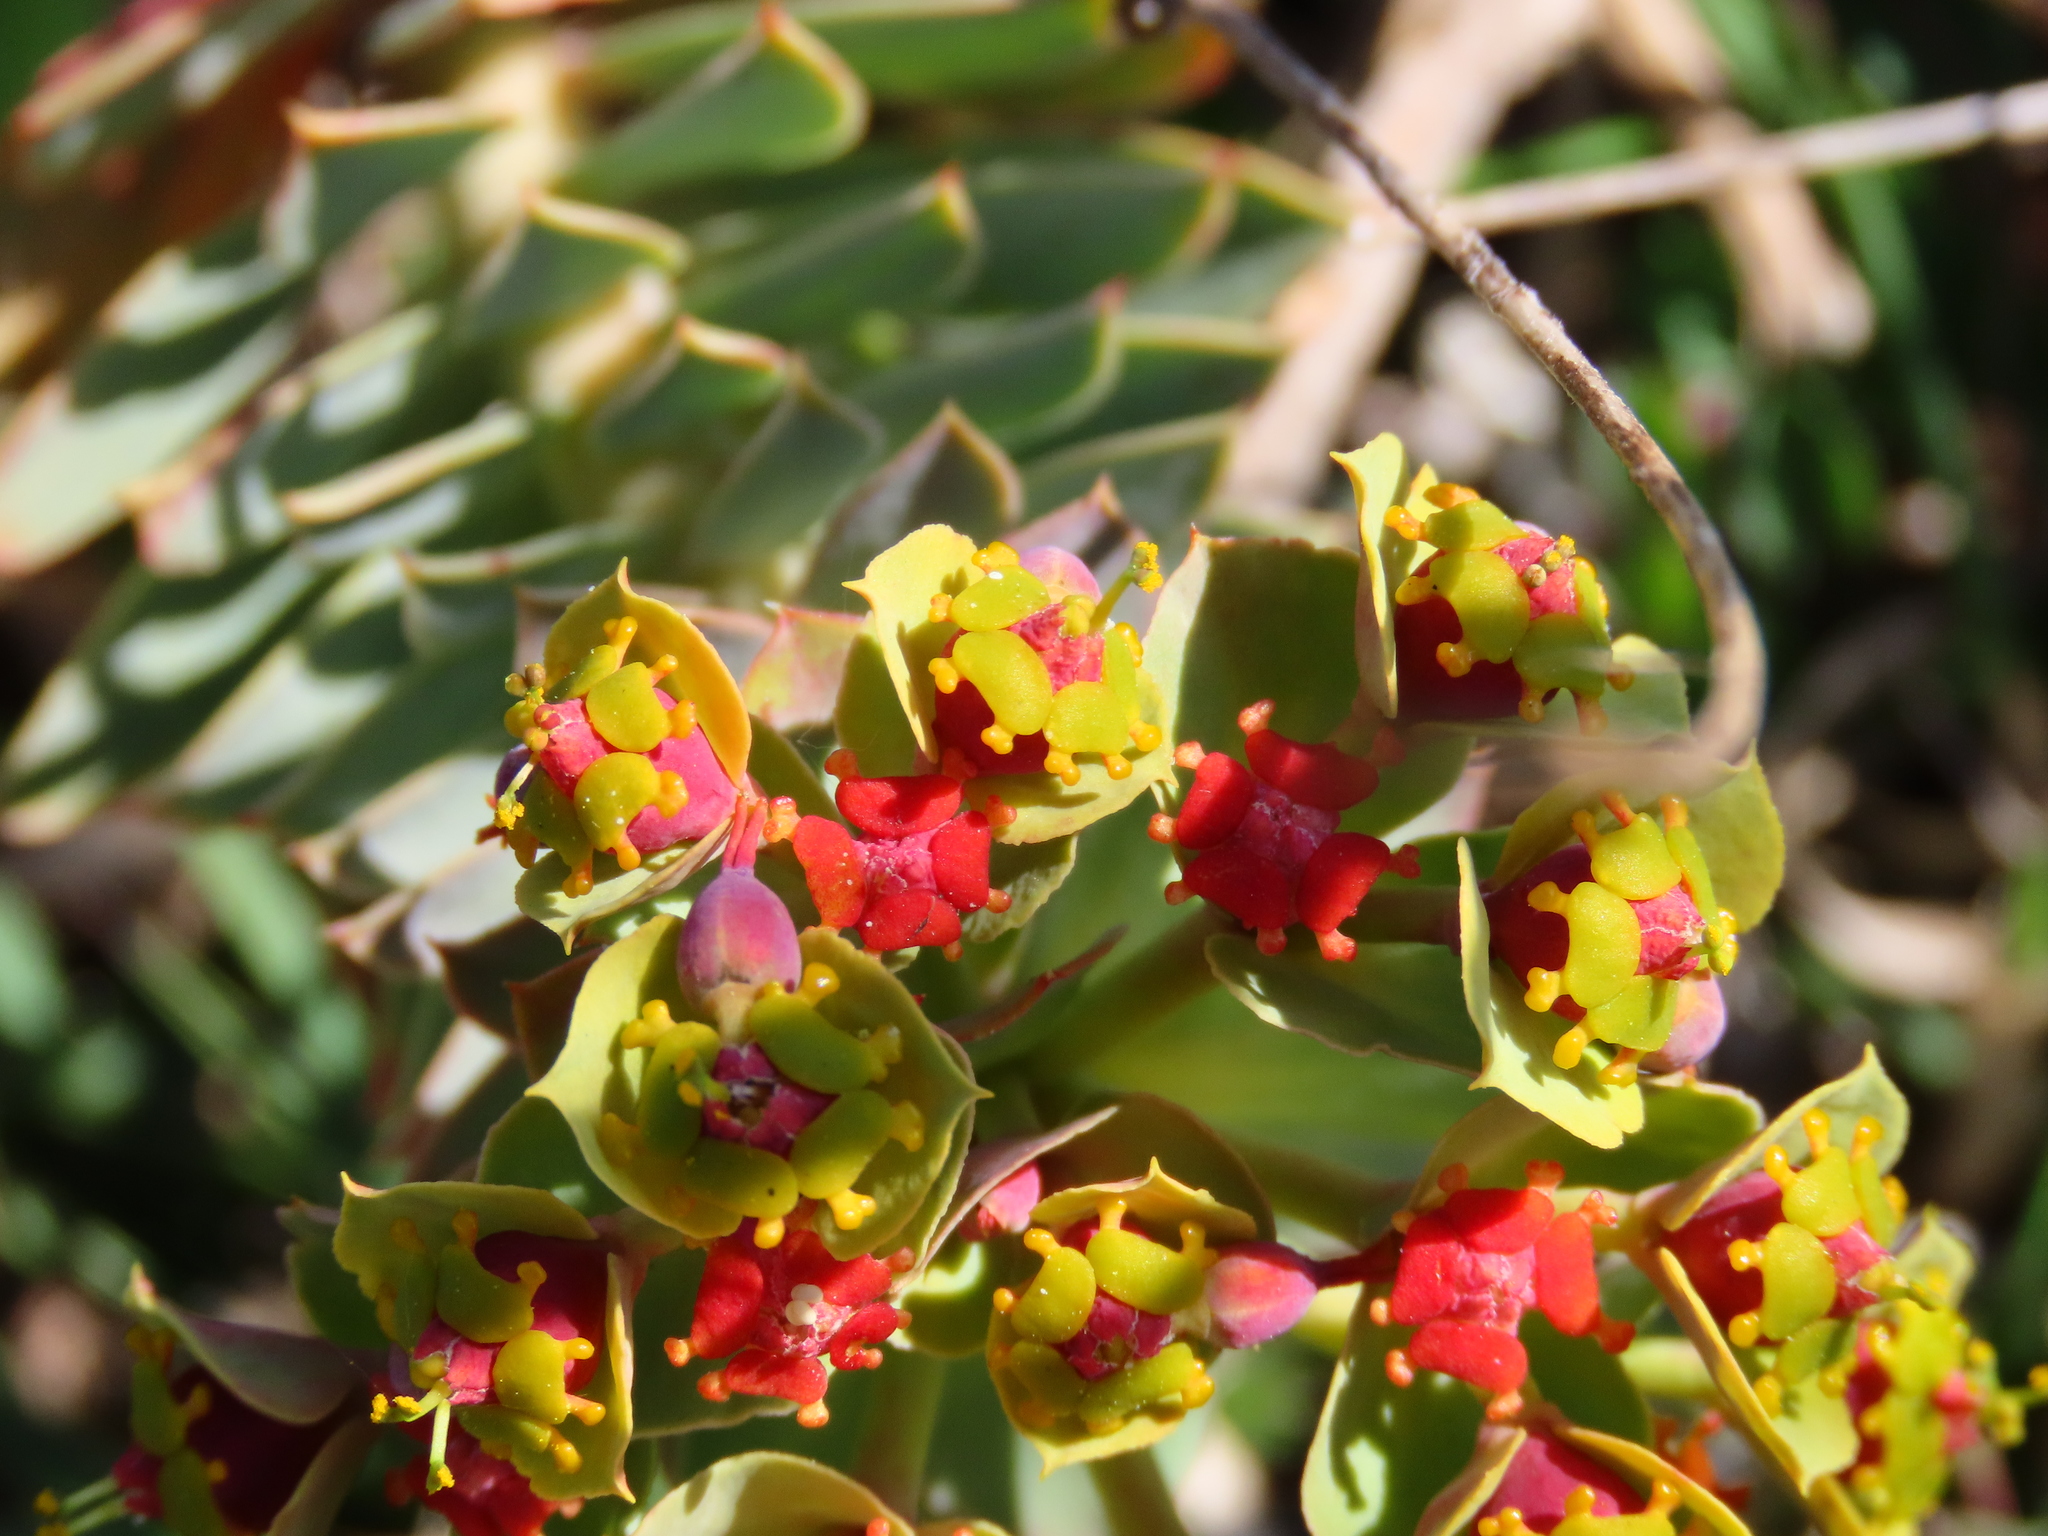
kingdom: Plantae
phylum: Tracheophyta
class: Magnoliopsida
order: Malpighiales
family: Euphorbiaceae
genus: Euphorbia
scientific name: Euphorbia myrsinites
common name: Myrtle spurge
